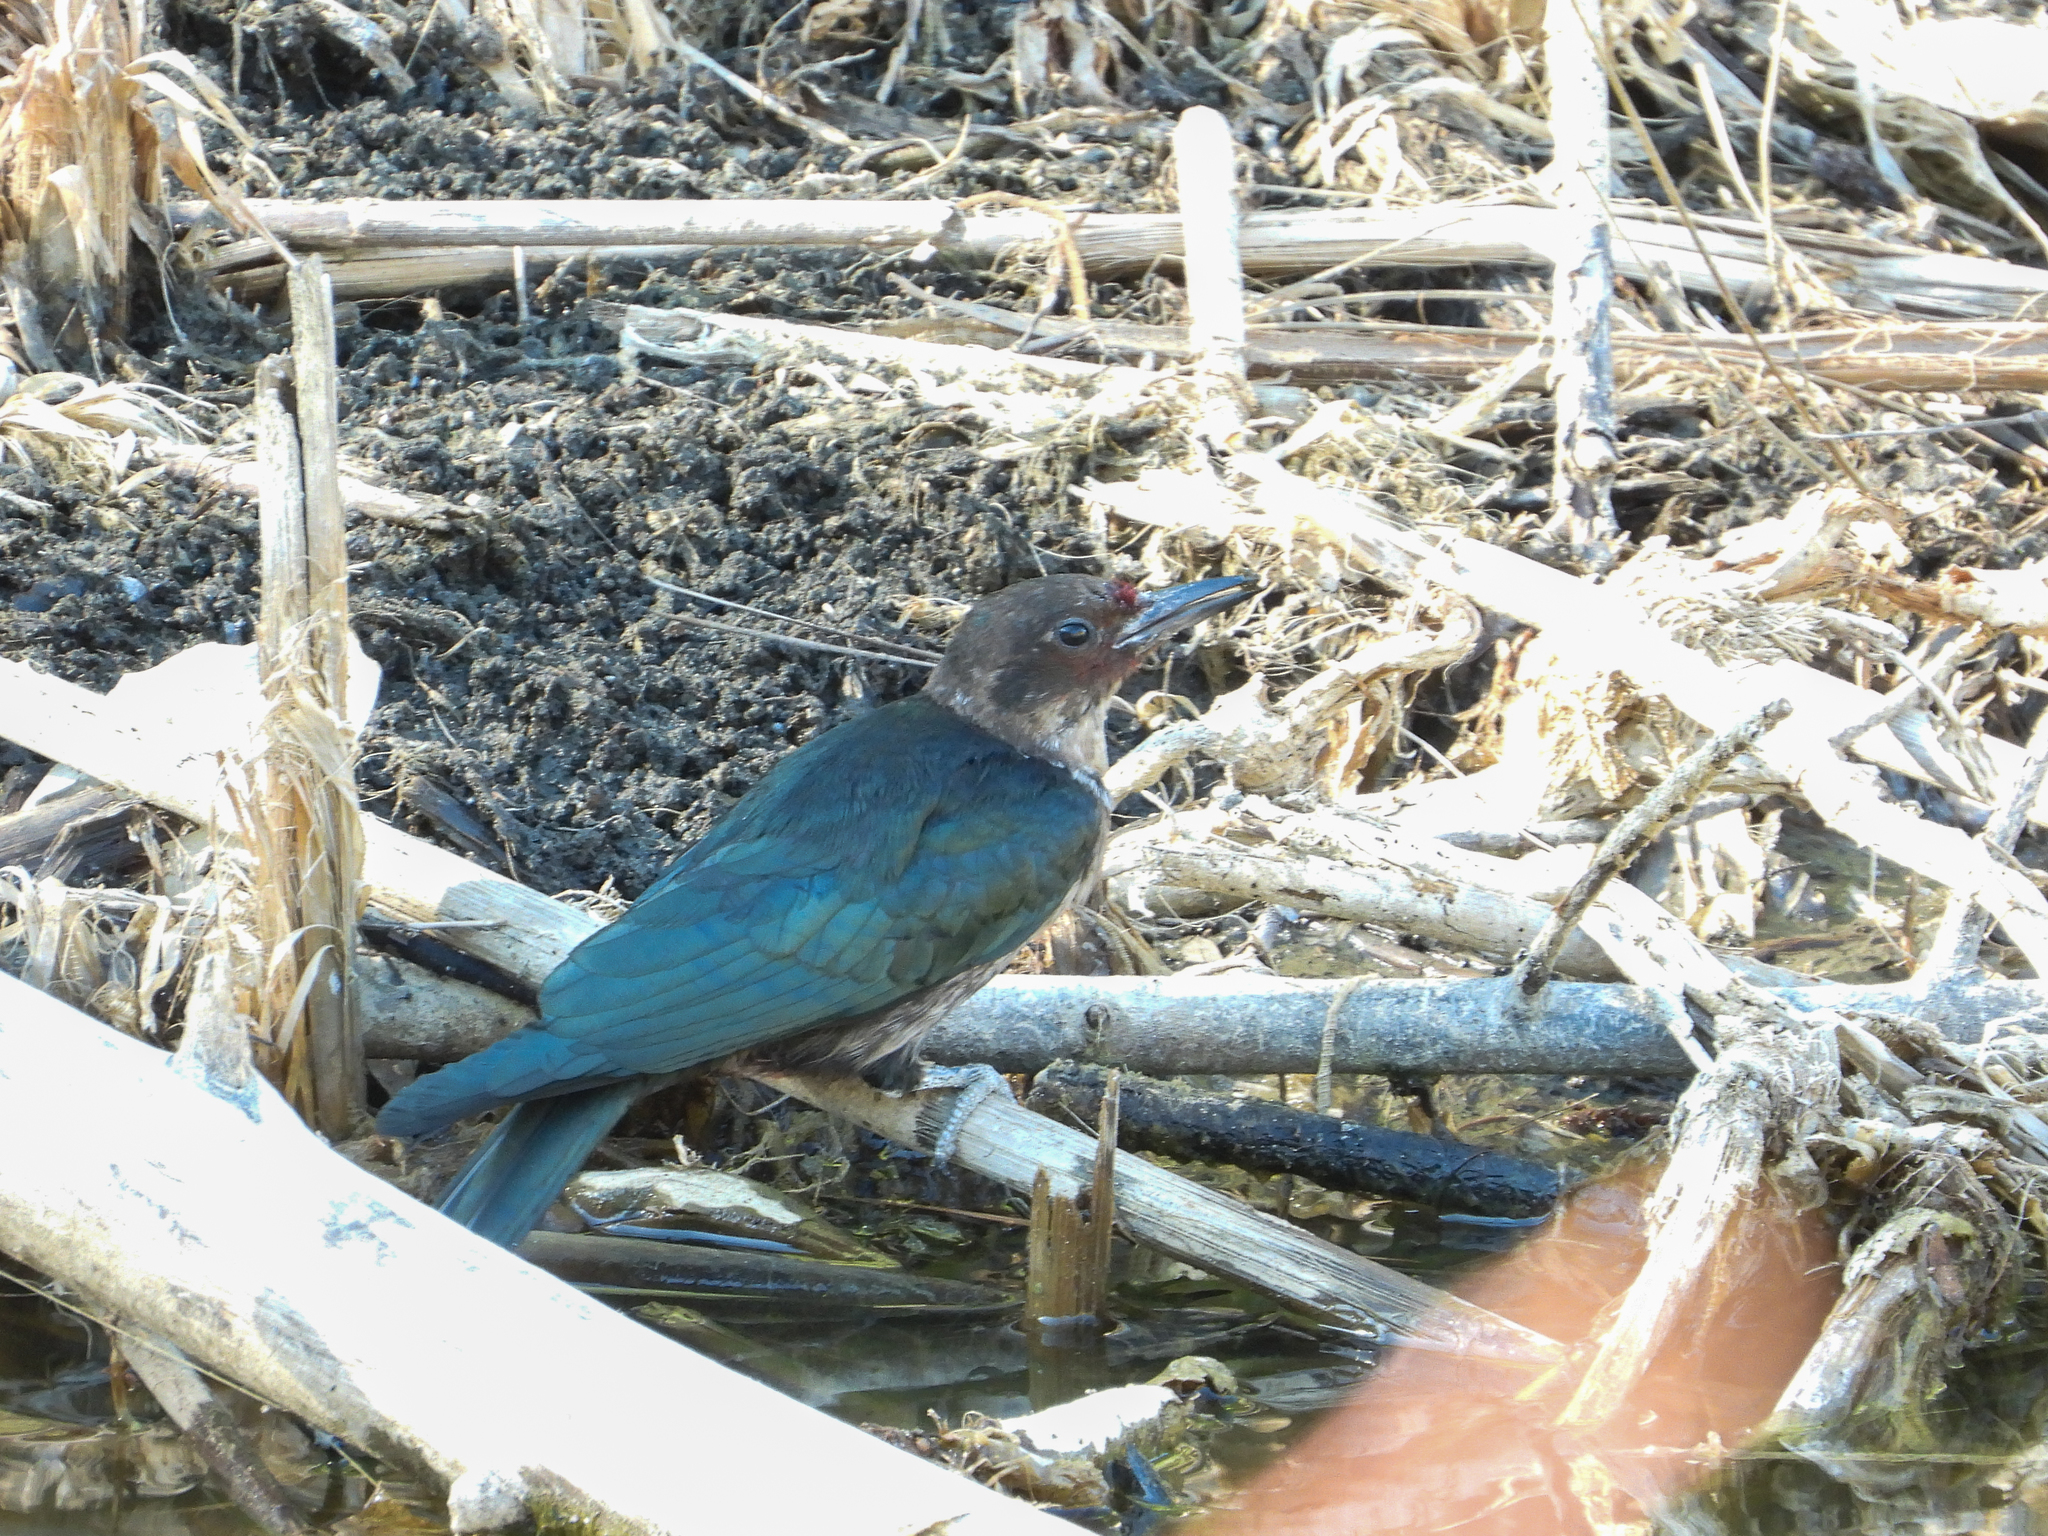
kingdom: Animalia
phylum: Chordata
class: Aves
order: Piciformes
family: Picidae
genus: Melanerpes
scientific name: Melanerpes lewis
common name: Lewis's woodpecker
